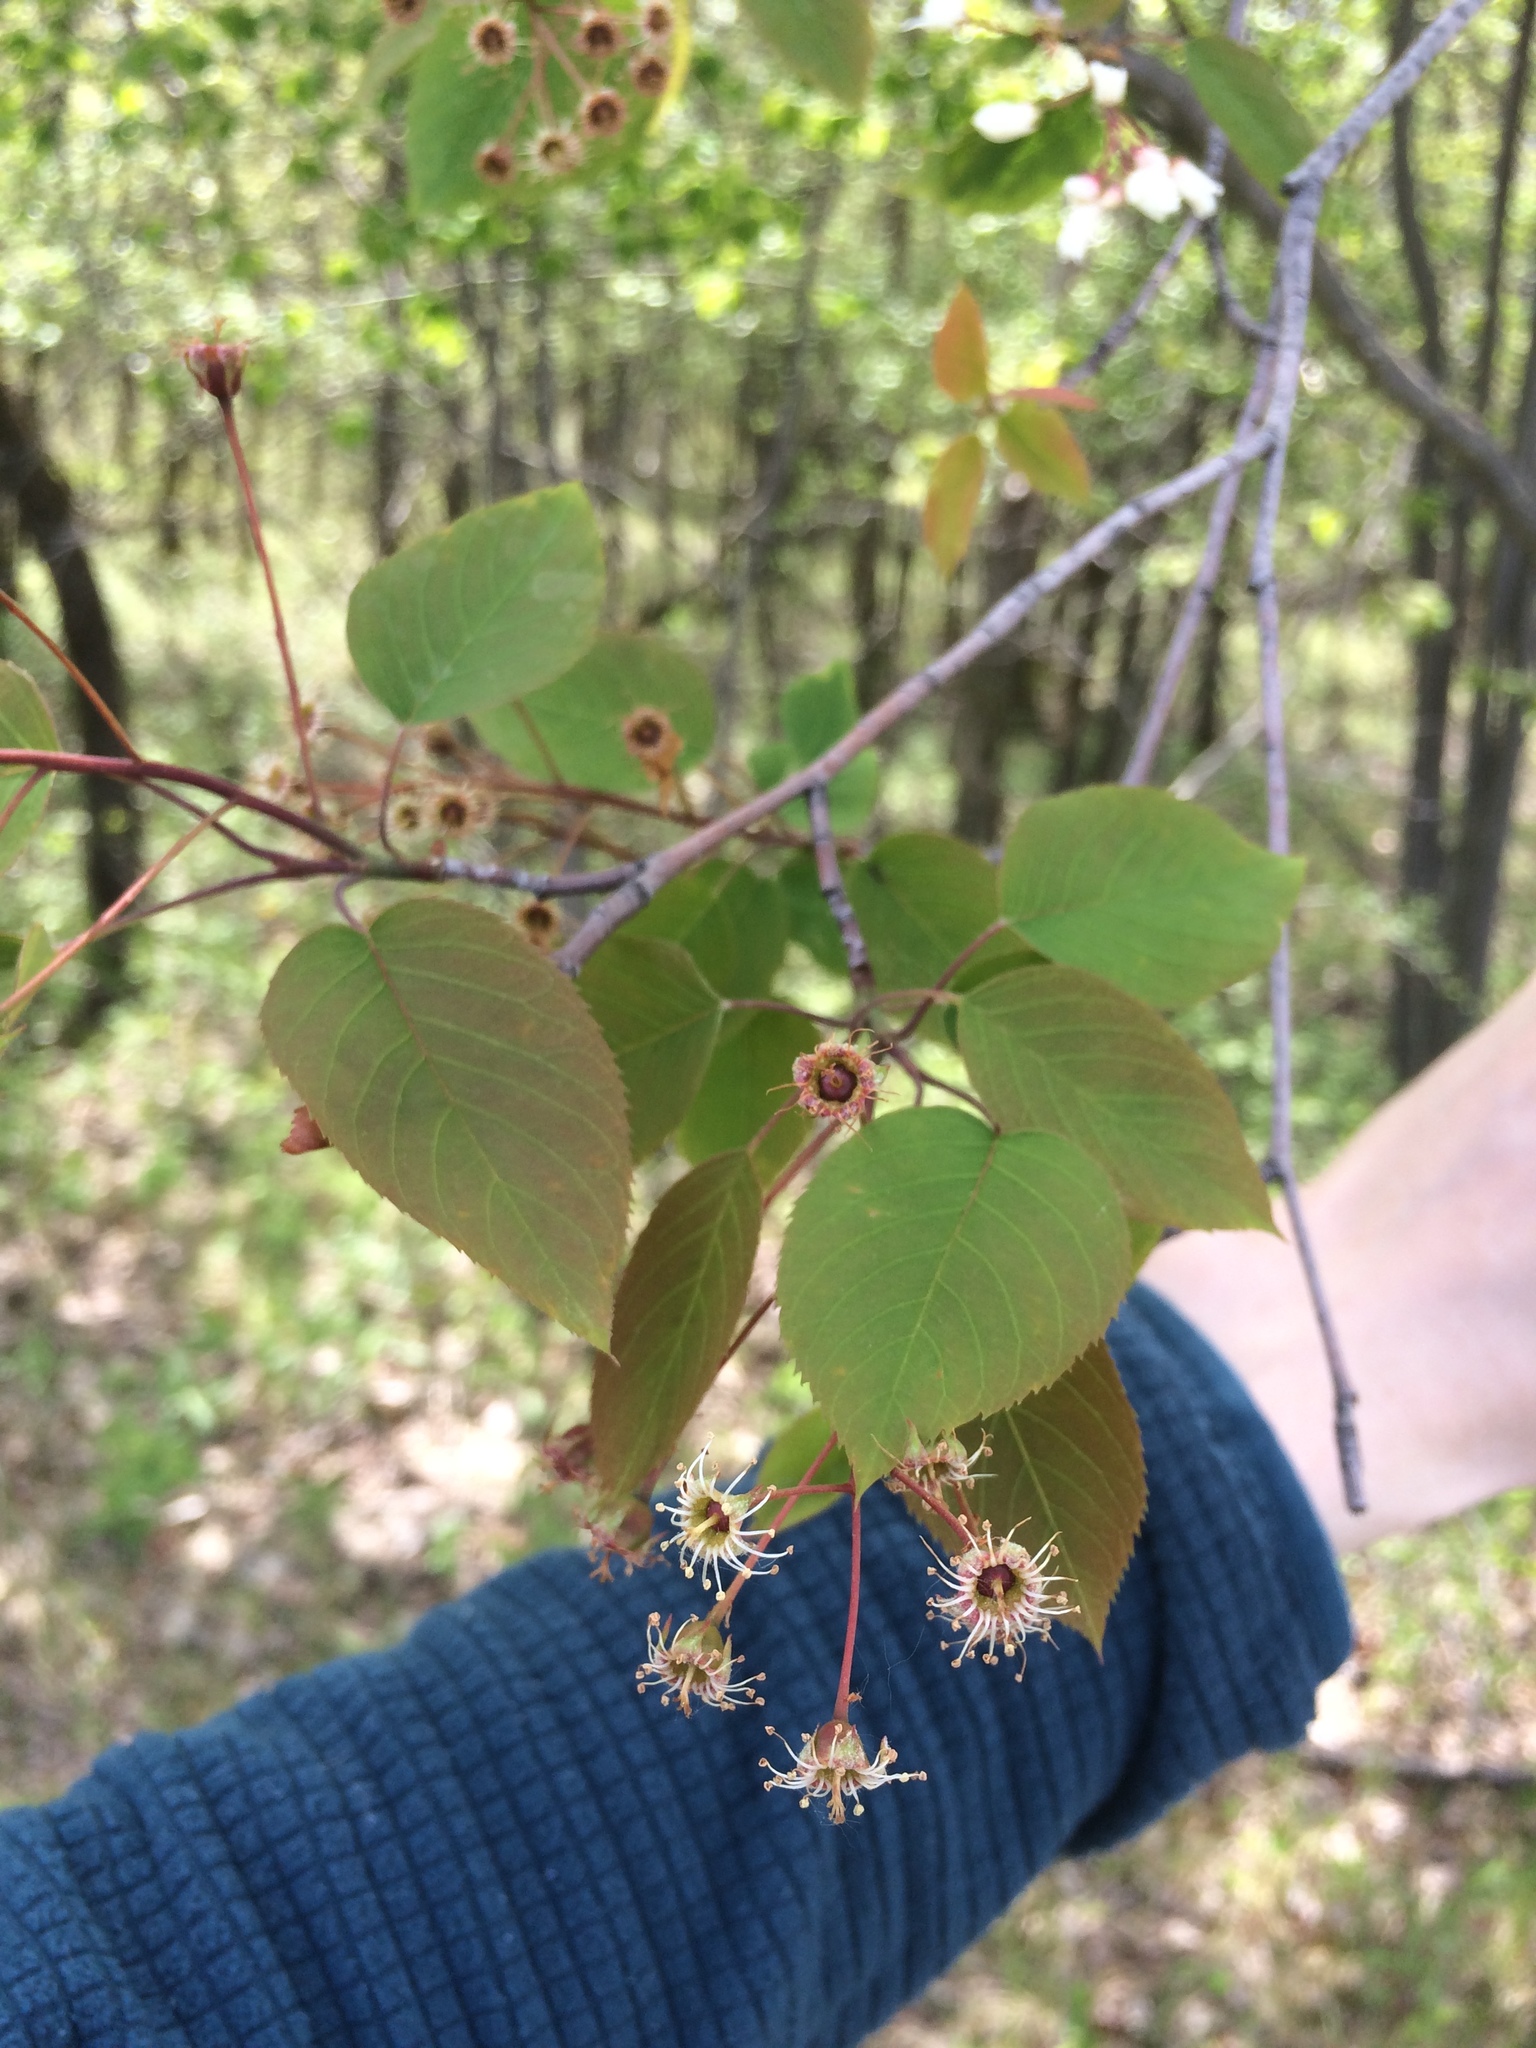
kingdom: Plantae
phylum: Tracheophyta
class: Magnoliopsida
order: Rosales
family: Rosaceae
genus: Amelanchier
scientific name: Amelanchier laevis
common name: Allegheny serviceberry
